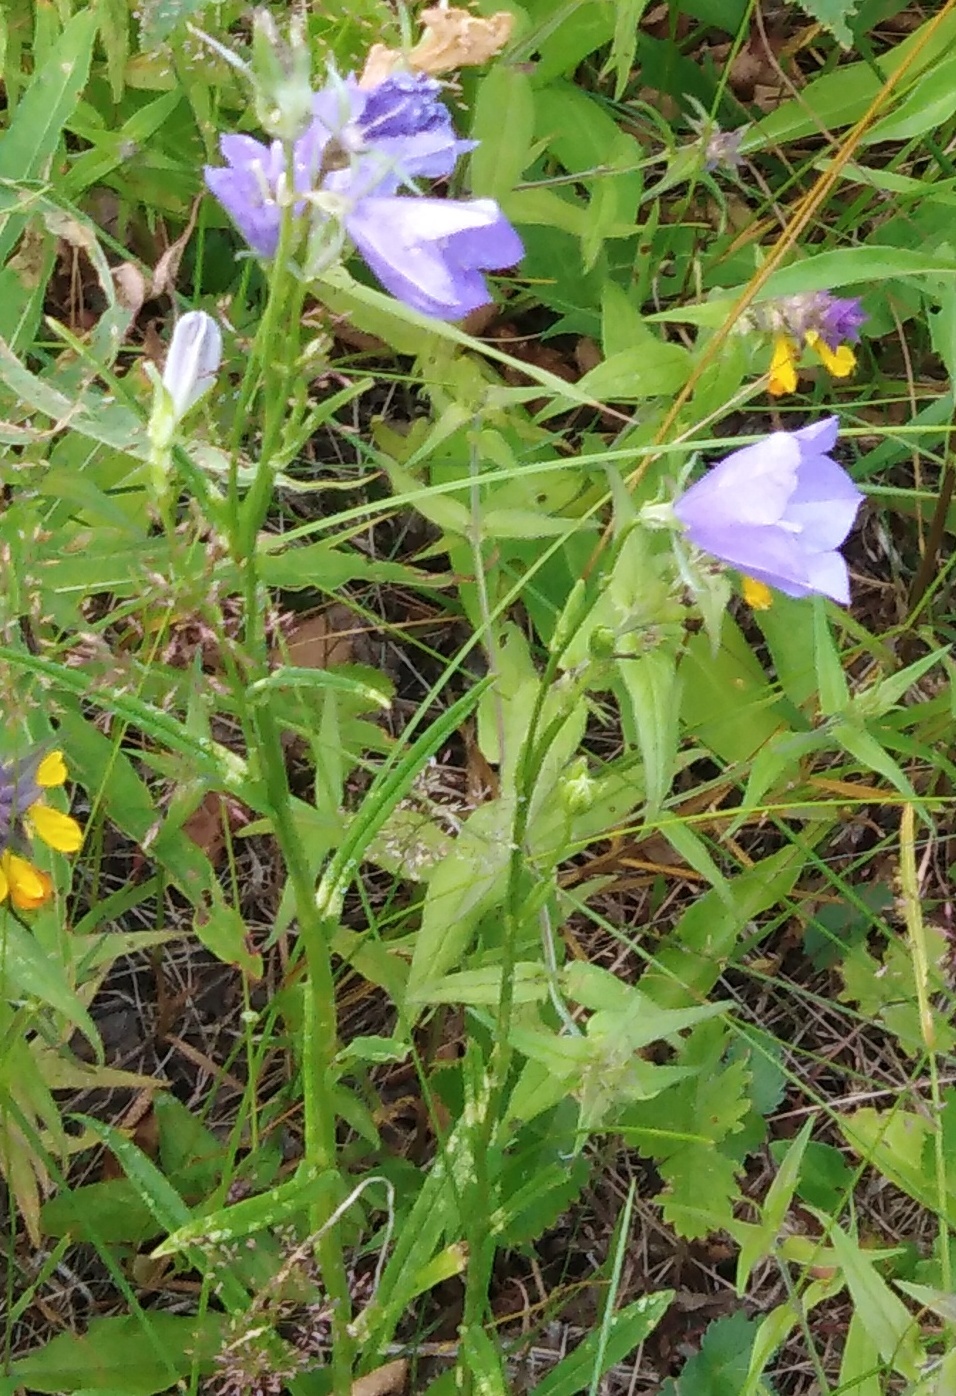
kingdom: Plantae
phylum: Tracheophyta
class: Magnoliopsida
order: Asterales
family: Campanulaceae
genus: Campanula
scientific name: Campanula persicifolia
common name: Peach-leaved bellflower
